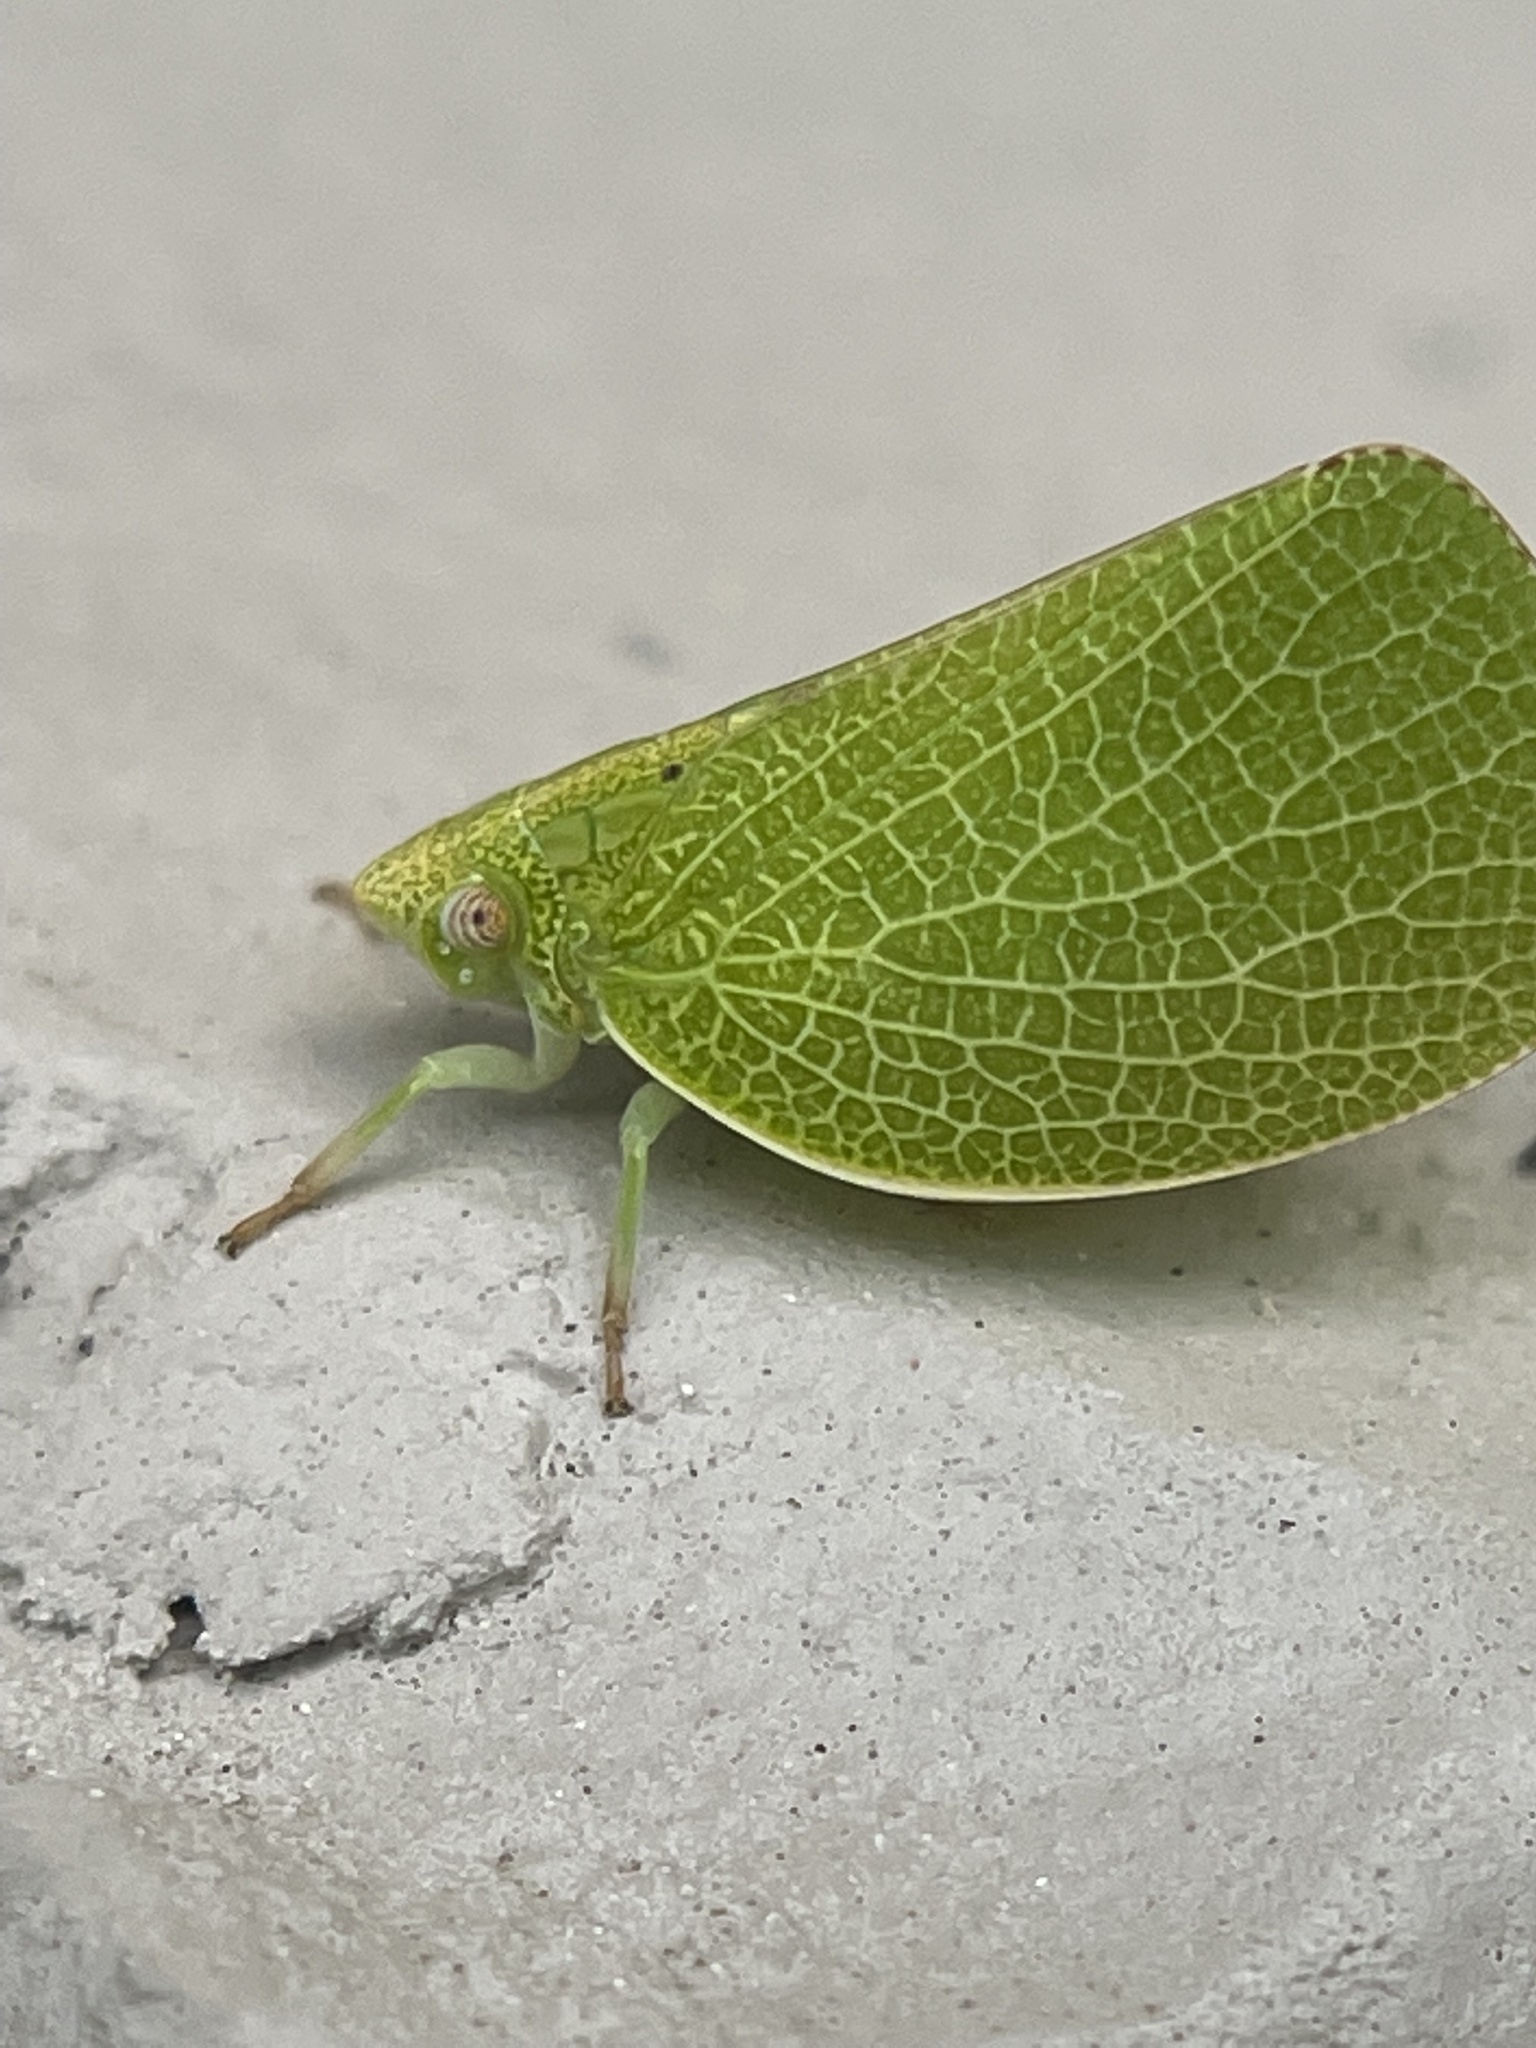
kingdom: Animalia
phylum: Arthropoda
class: Insecta
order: Hemiptera
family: Acanaloniidae
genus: Acanalonia
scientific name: Acanalonia conica
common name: Green cone-headed planthopper
